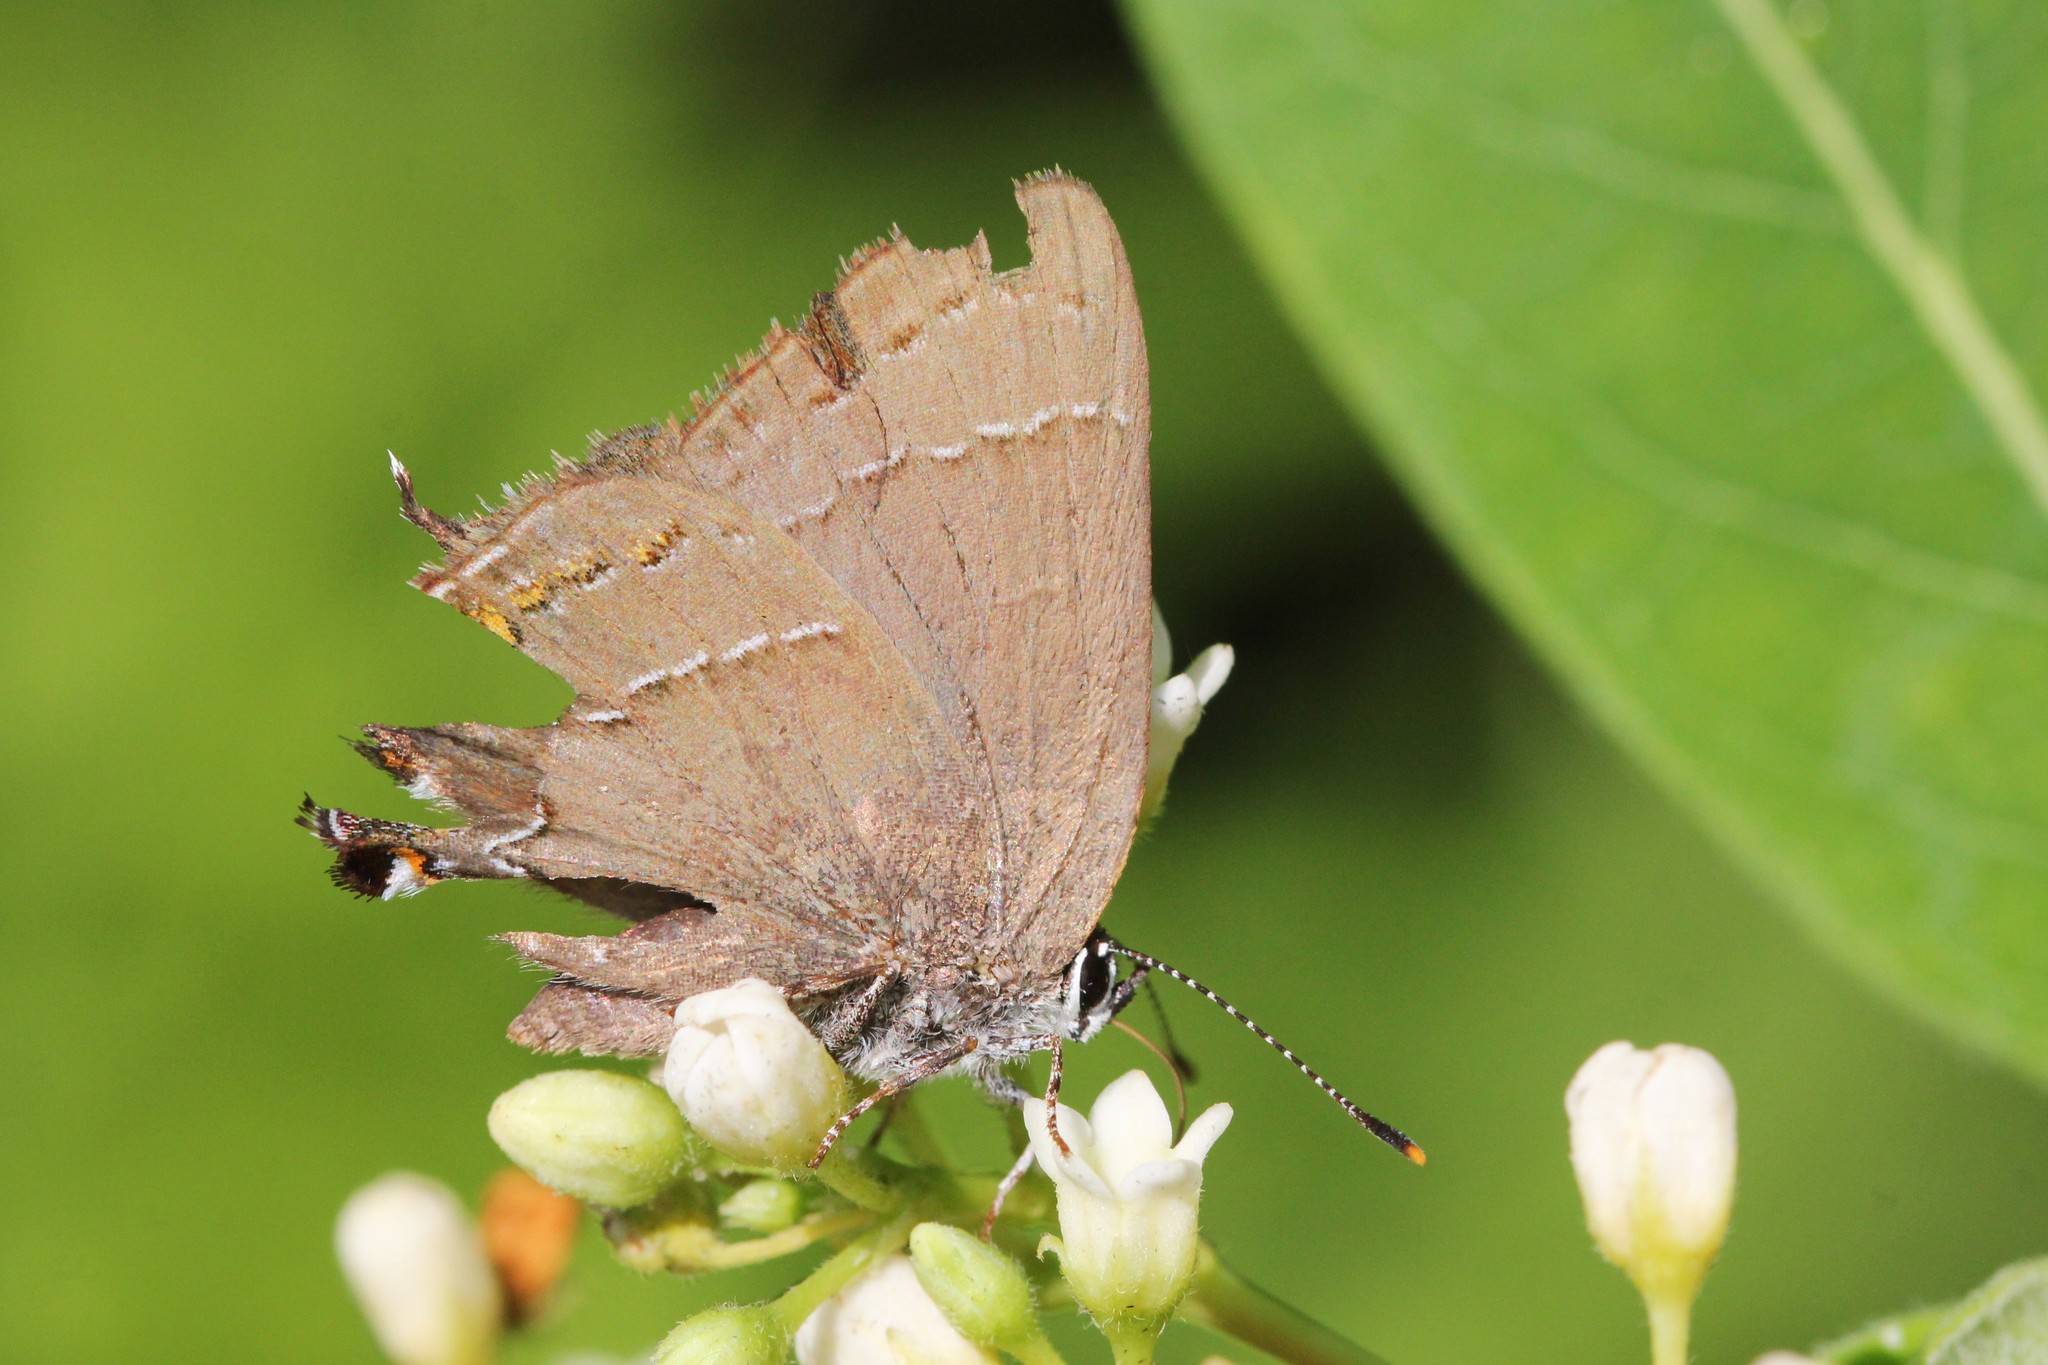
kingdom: Animalia
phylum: Arthropoda
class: Insecta
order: Lepidoptera
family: Lycaenidae
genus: Fixsenia
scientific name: Fixsenia ontario
